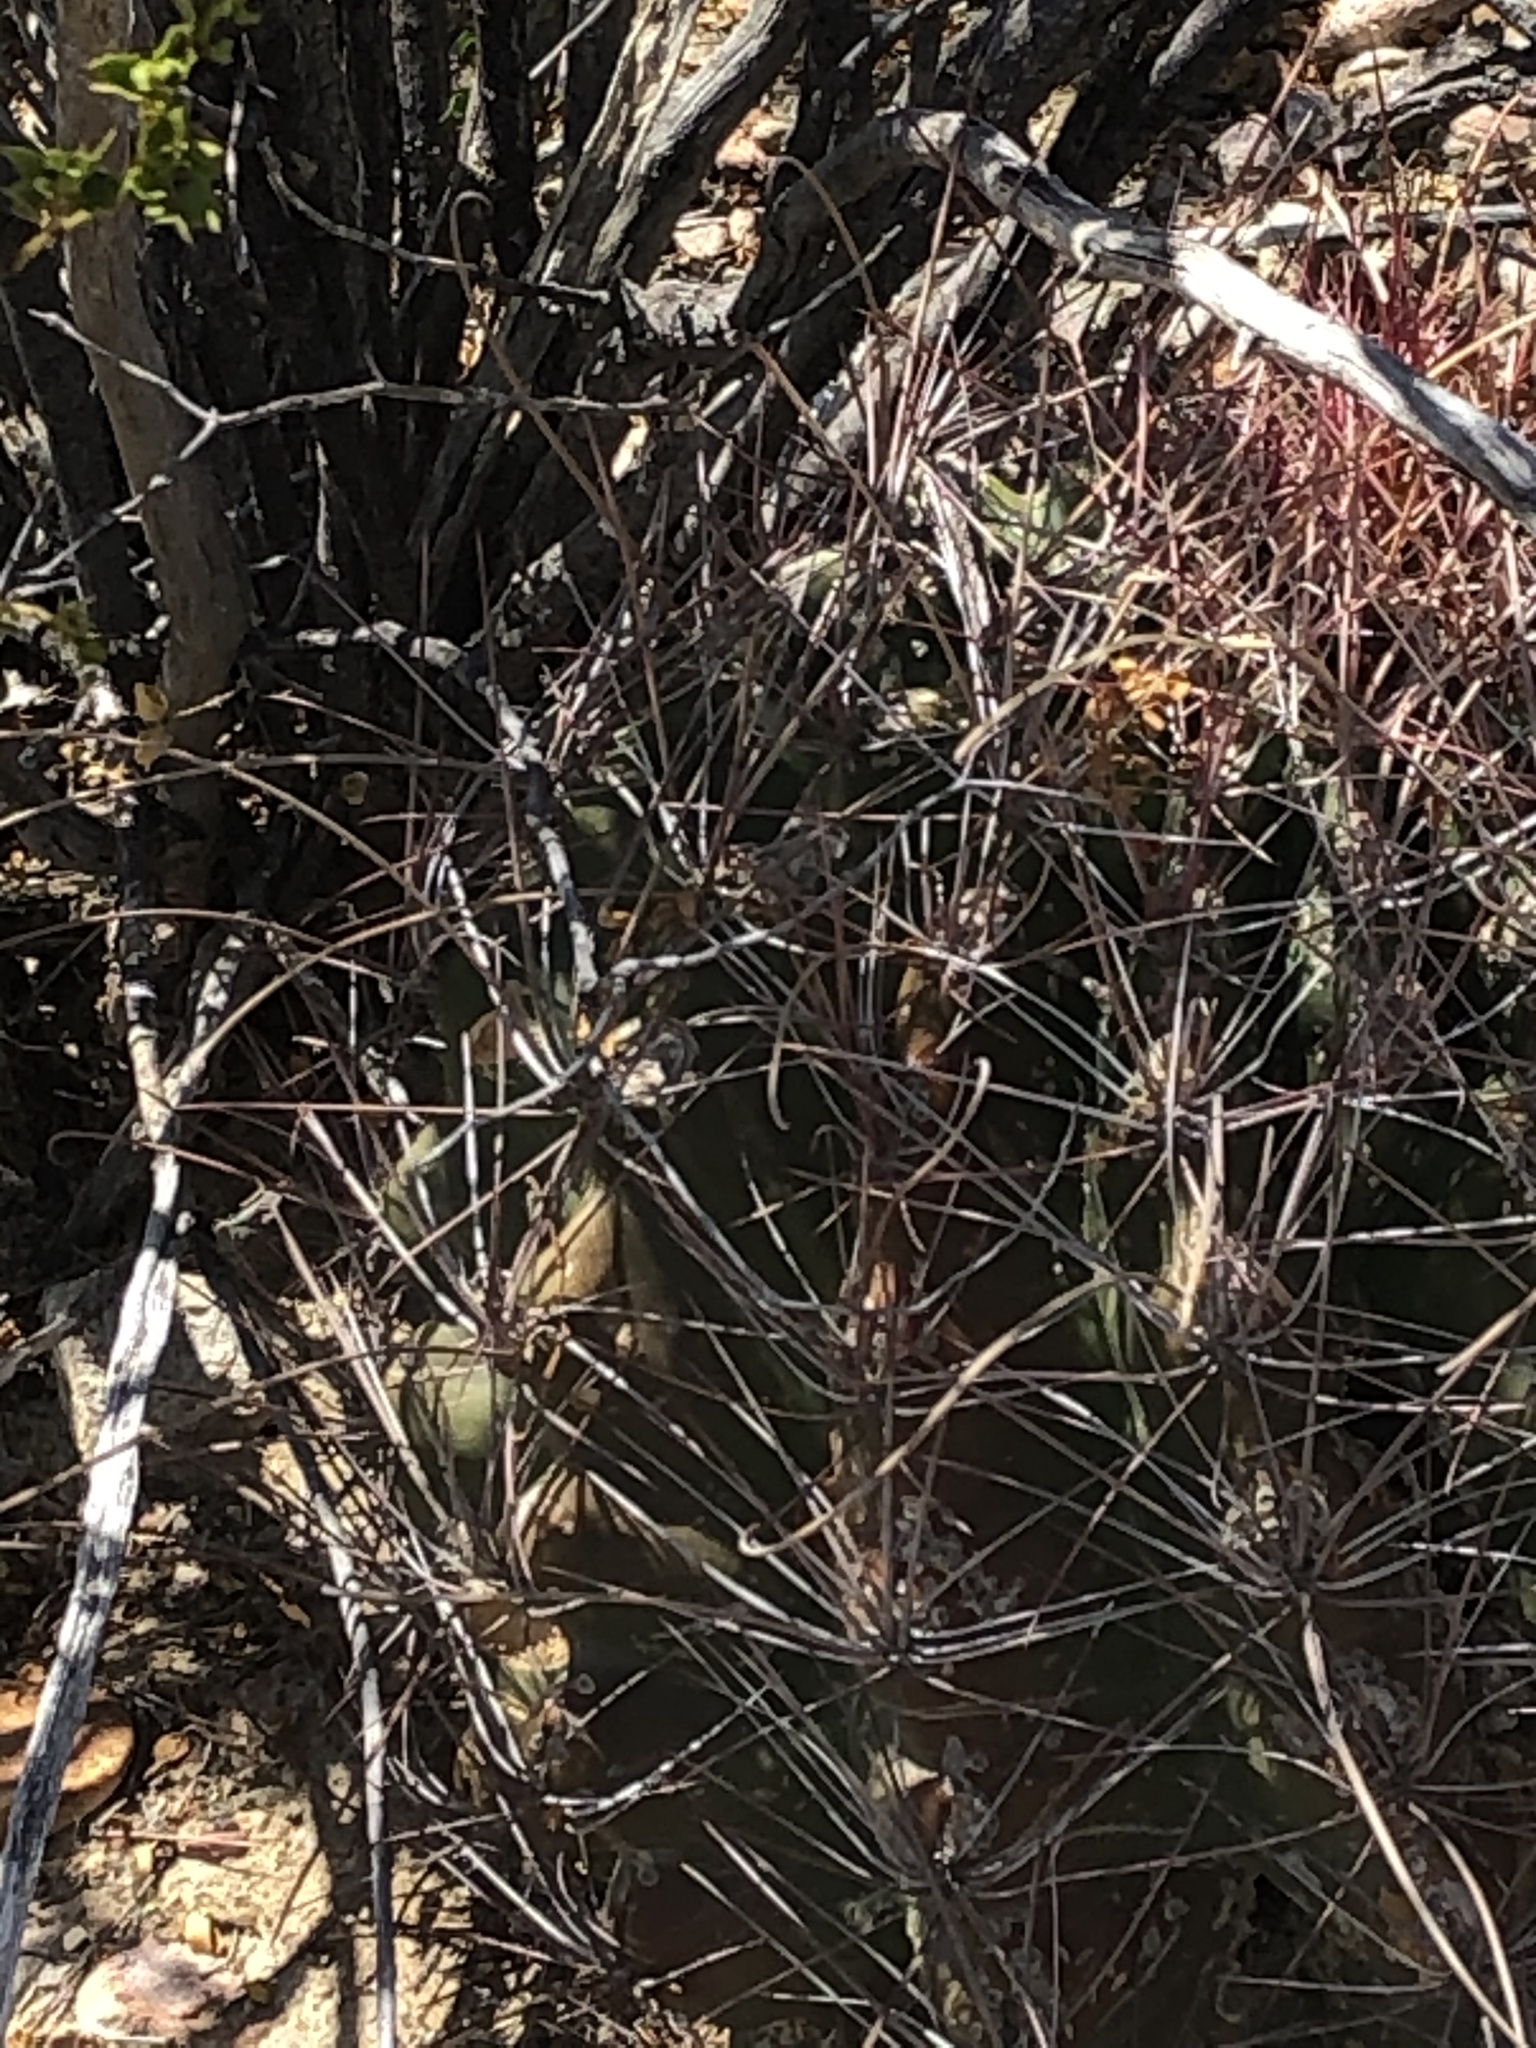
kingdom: Plantae
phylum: Tracheophyta
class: Magnoliopsida
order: Caryophyllales
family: Cactaceae
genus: Bisnaga
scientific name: Bisnaga hamatacantha
